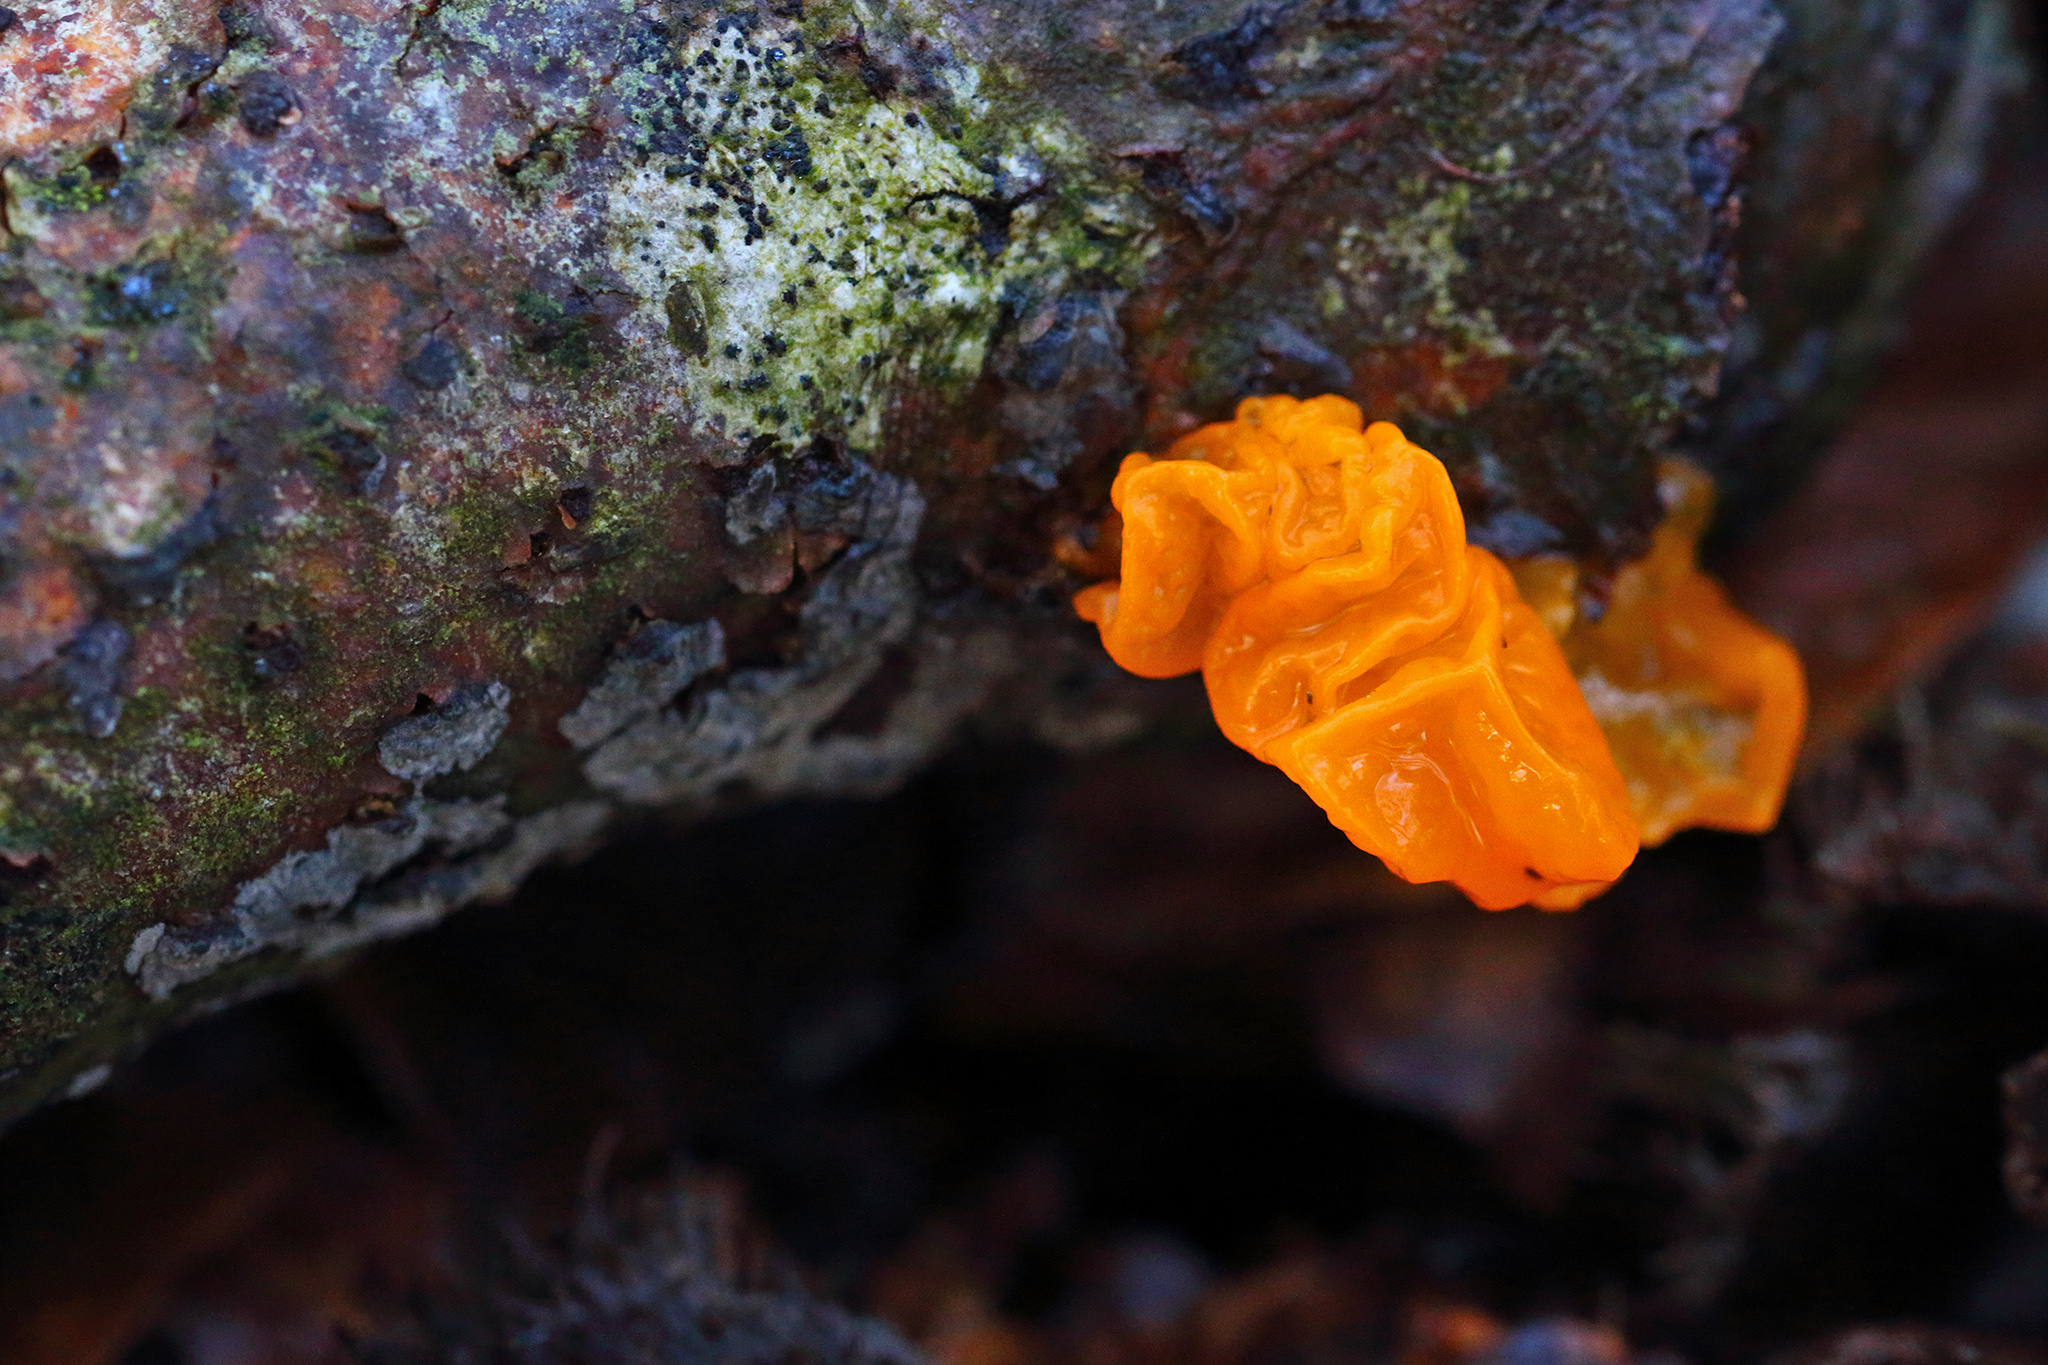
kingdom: Fungi
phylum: Basidiomycota
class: Tremellomycetes
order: Tremellales
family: Tremellaceae
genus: Tremella
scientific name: Tremella mesenterica
